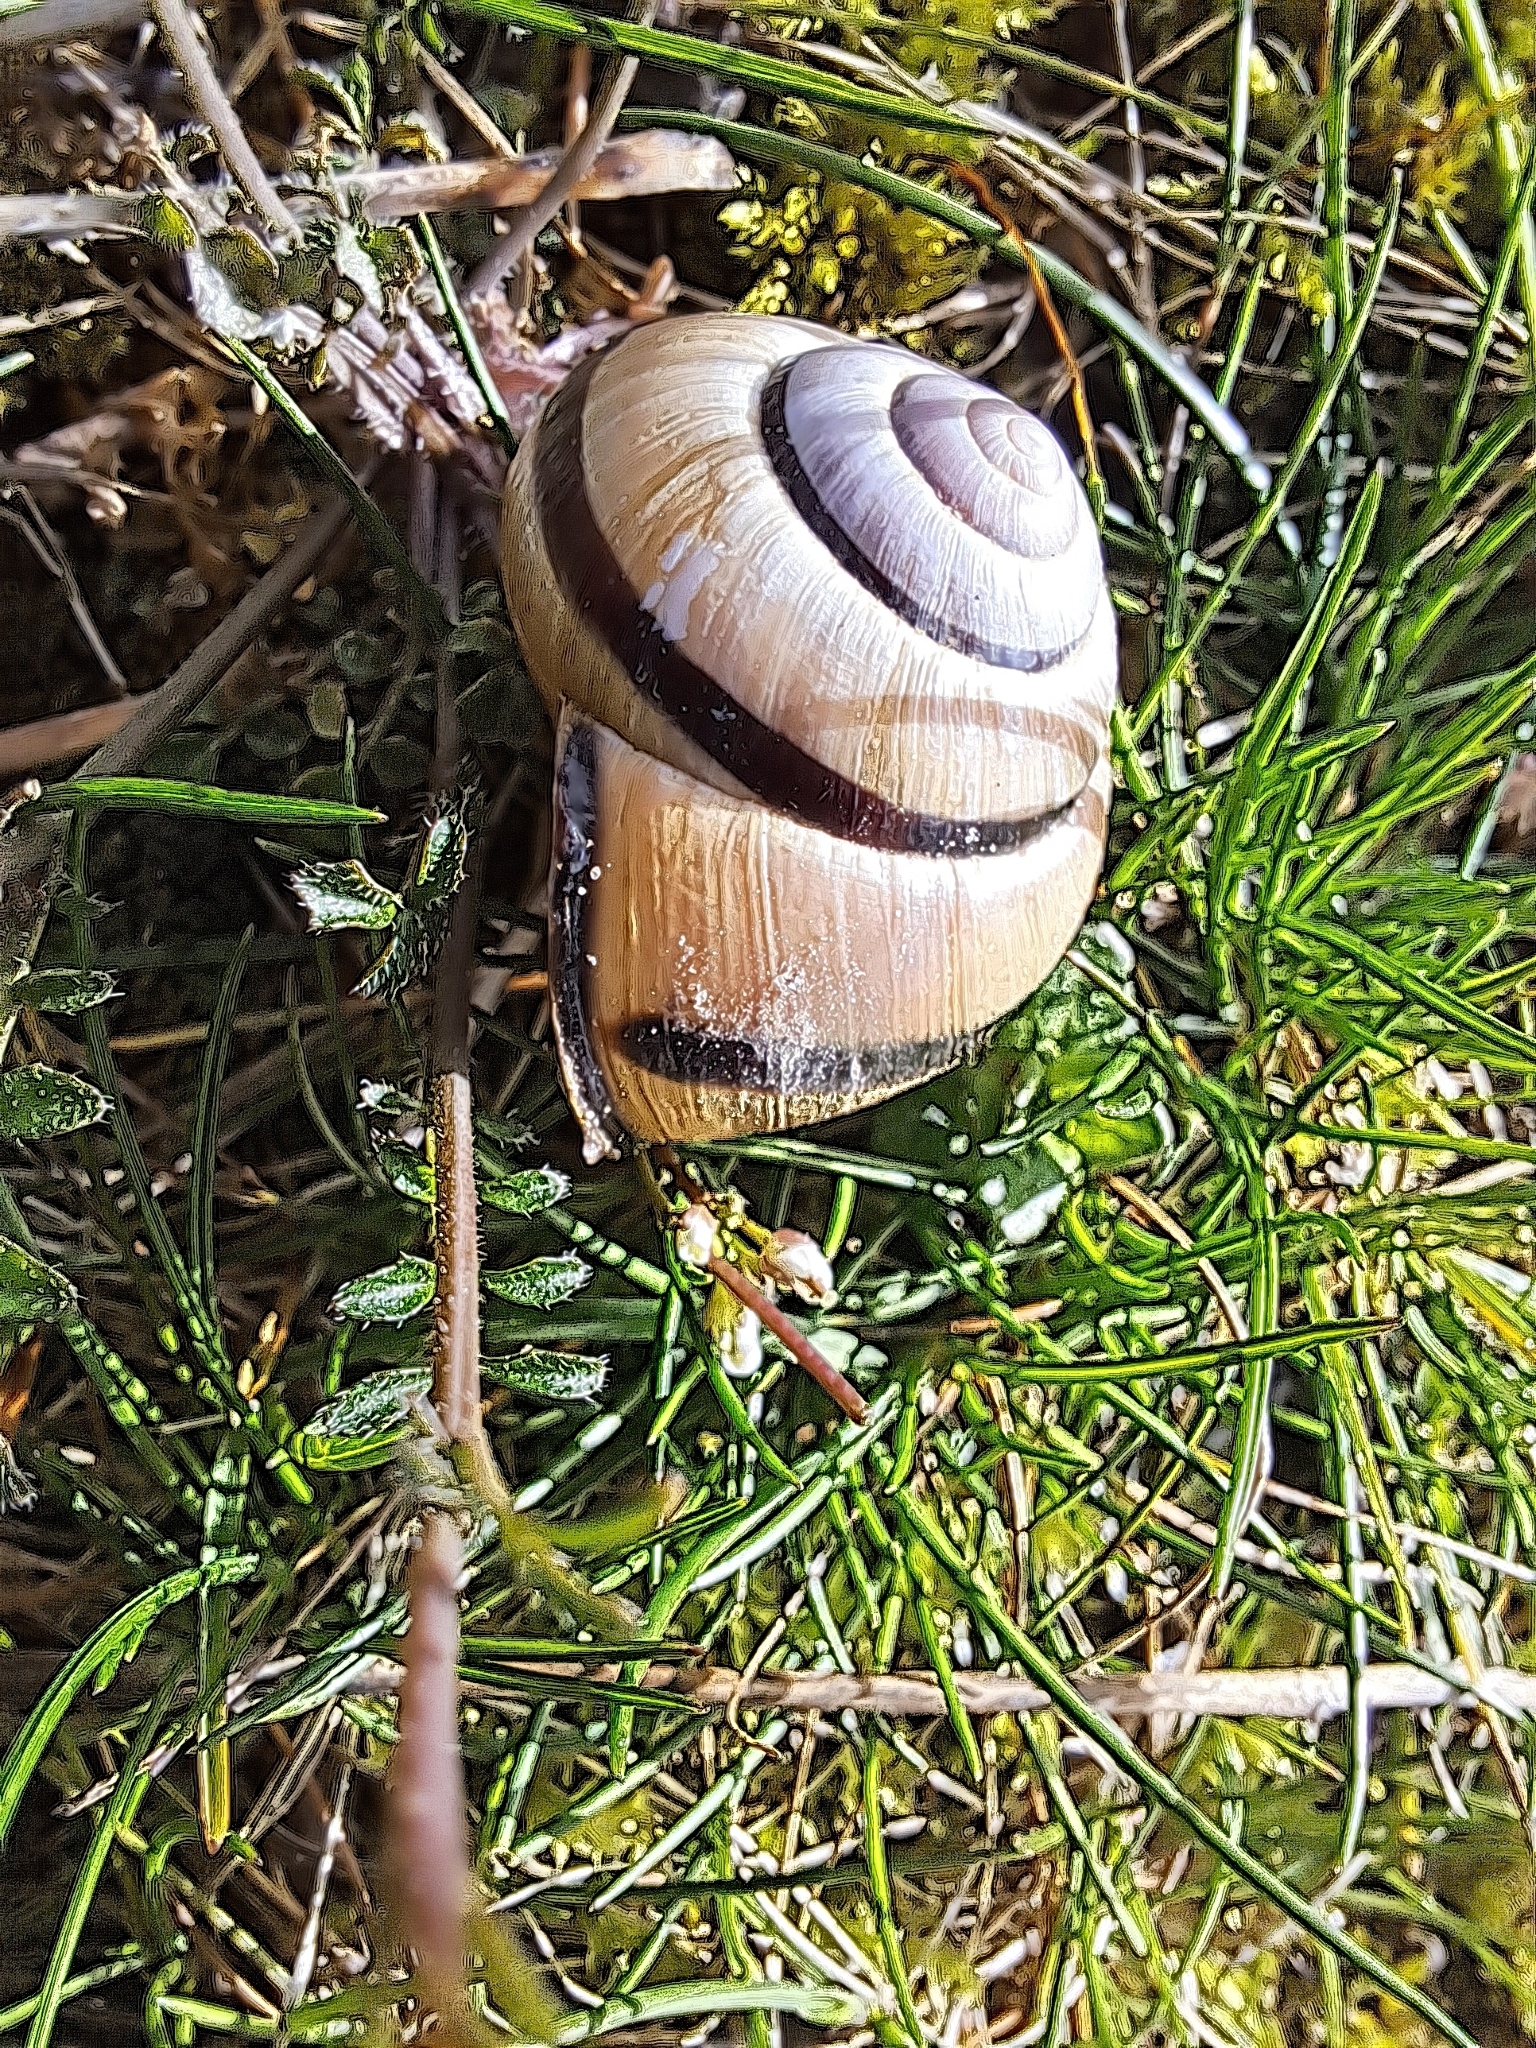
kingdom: Animalia
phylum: Mollusca
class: Gastropoda
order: Stylommatophora
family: Helicidae
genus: Cepaea
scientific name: Cepaea nemoralis
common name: Grovesnail
